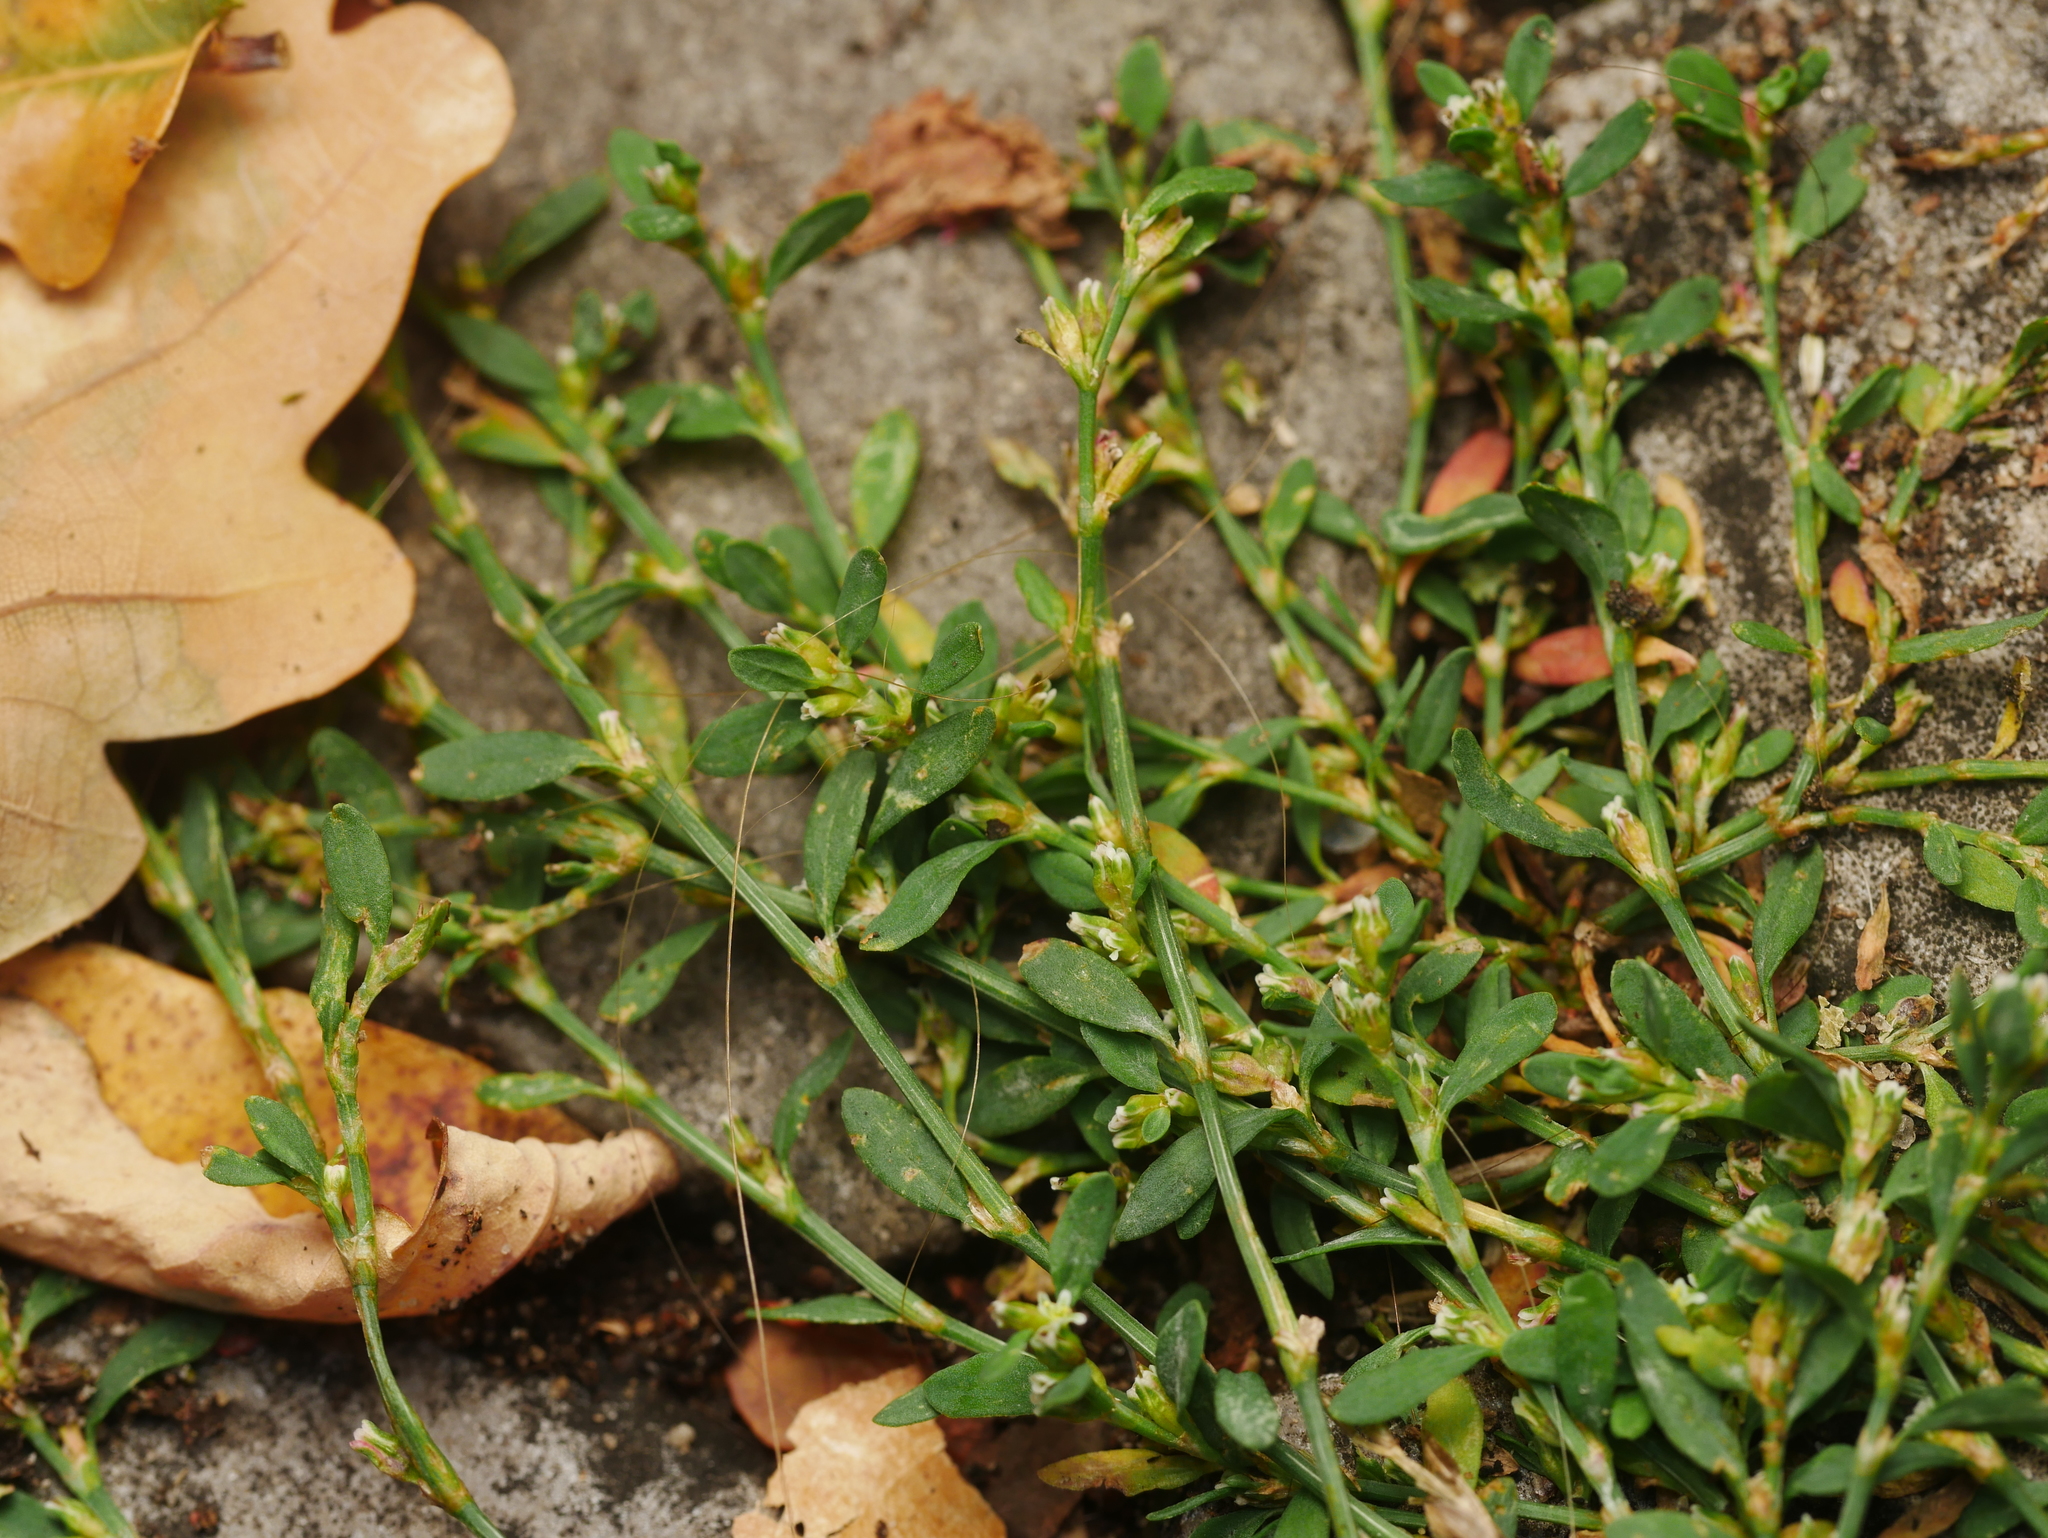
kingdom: Plantae
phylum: Tracheophyta
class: Magnoliopsida
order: Caryophyllales
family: Polygonaceae
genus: Polygonum
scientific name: Polygonum aviculare
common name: Prostrate knotweed
